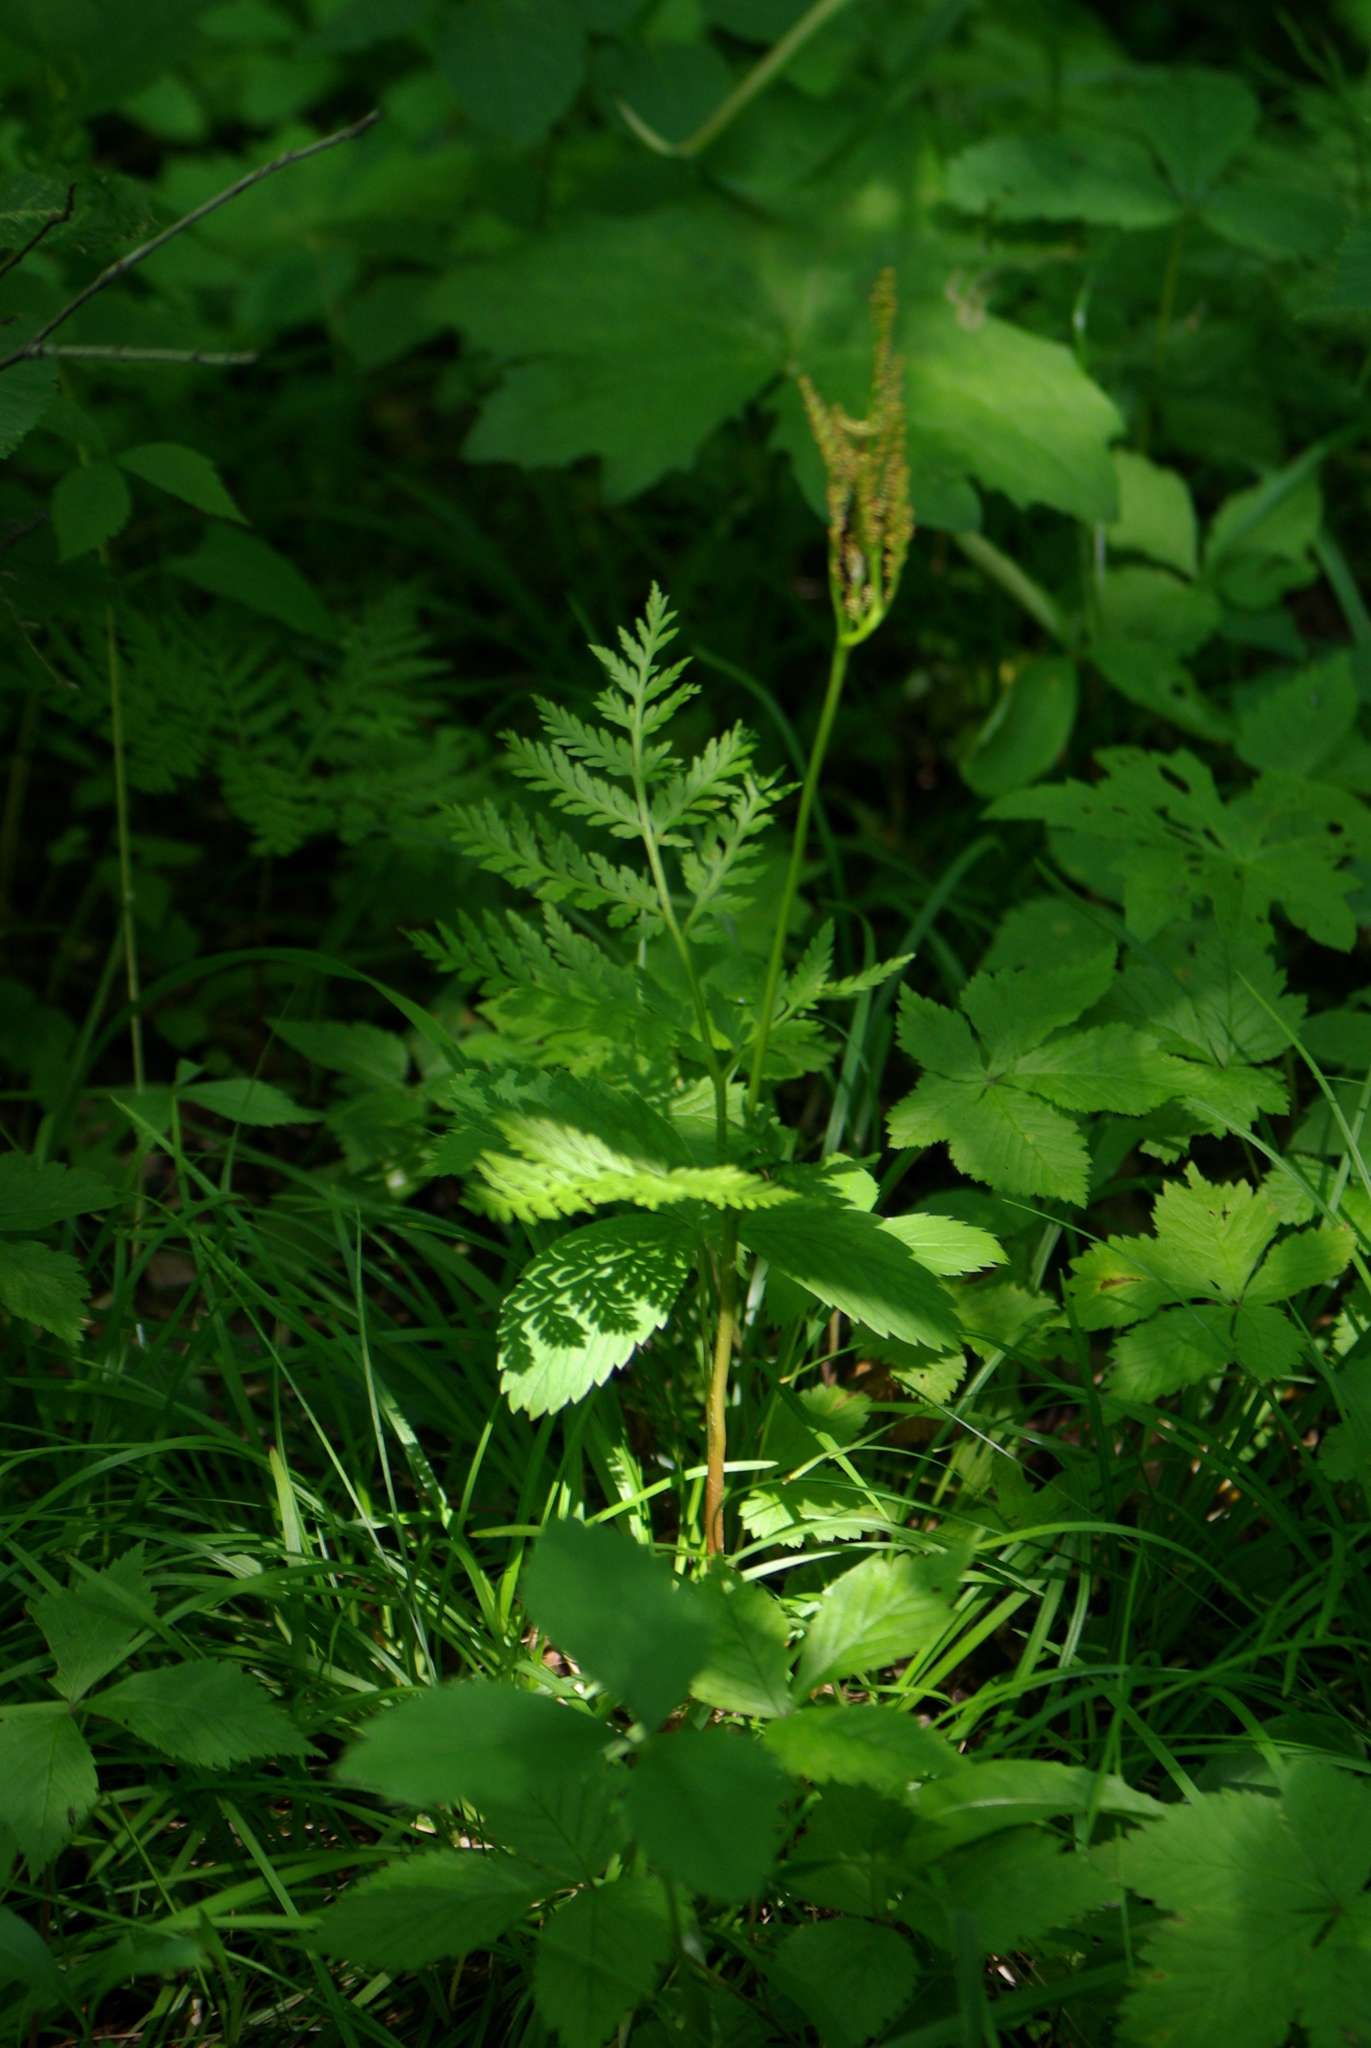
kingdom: Plantae
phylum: Tracheophyta
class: Polypodiopsida
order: Ophioglossales
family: Ophioglossaceae
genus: Botrypus
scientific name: Botrypus virginianus
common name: Common grapefern
